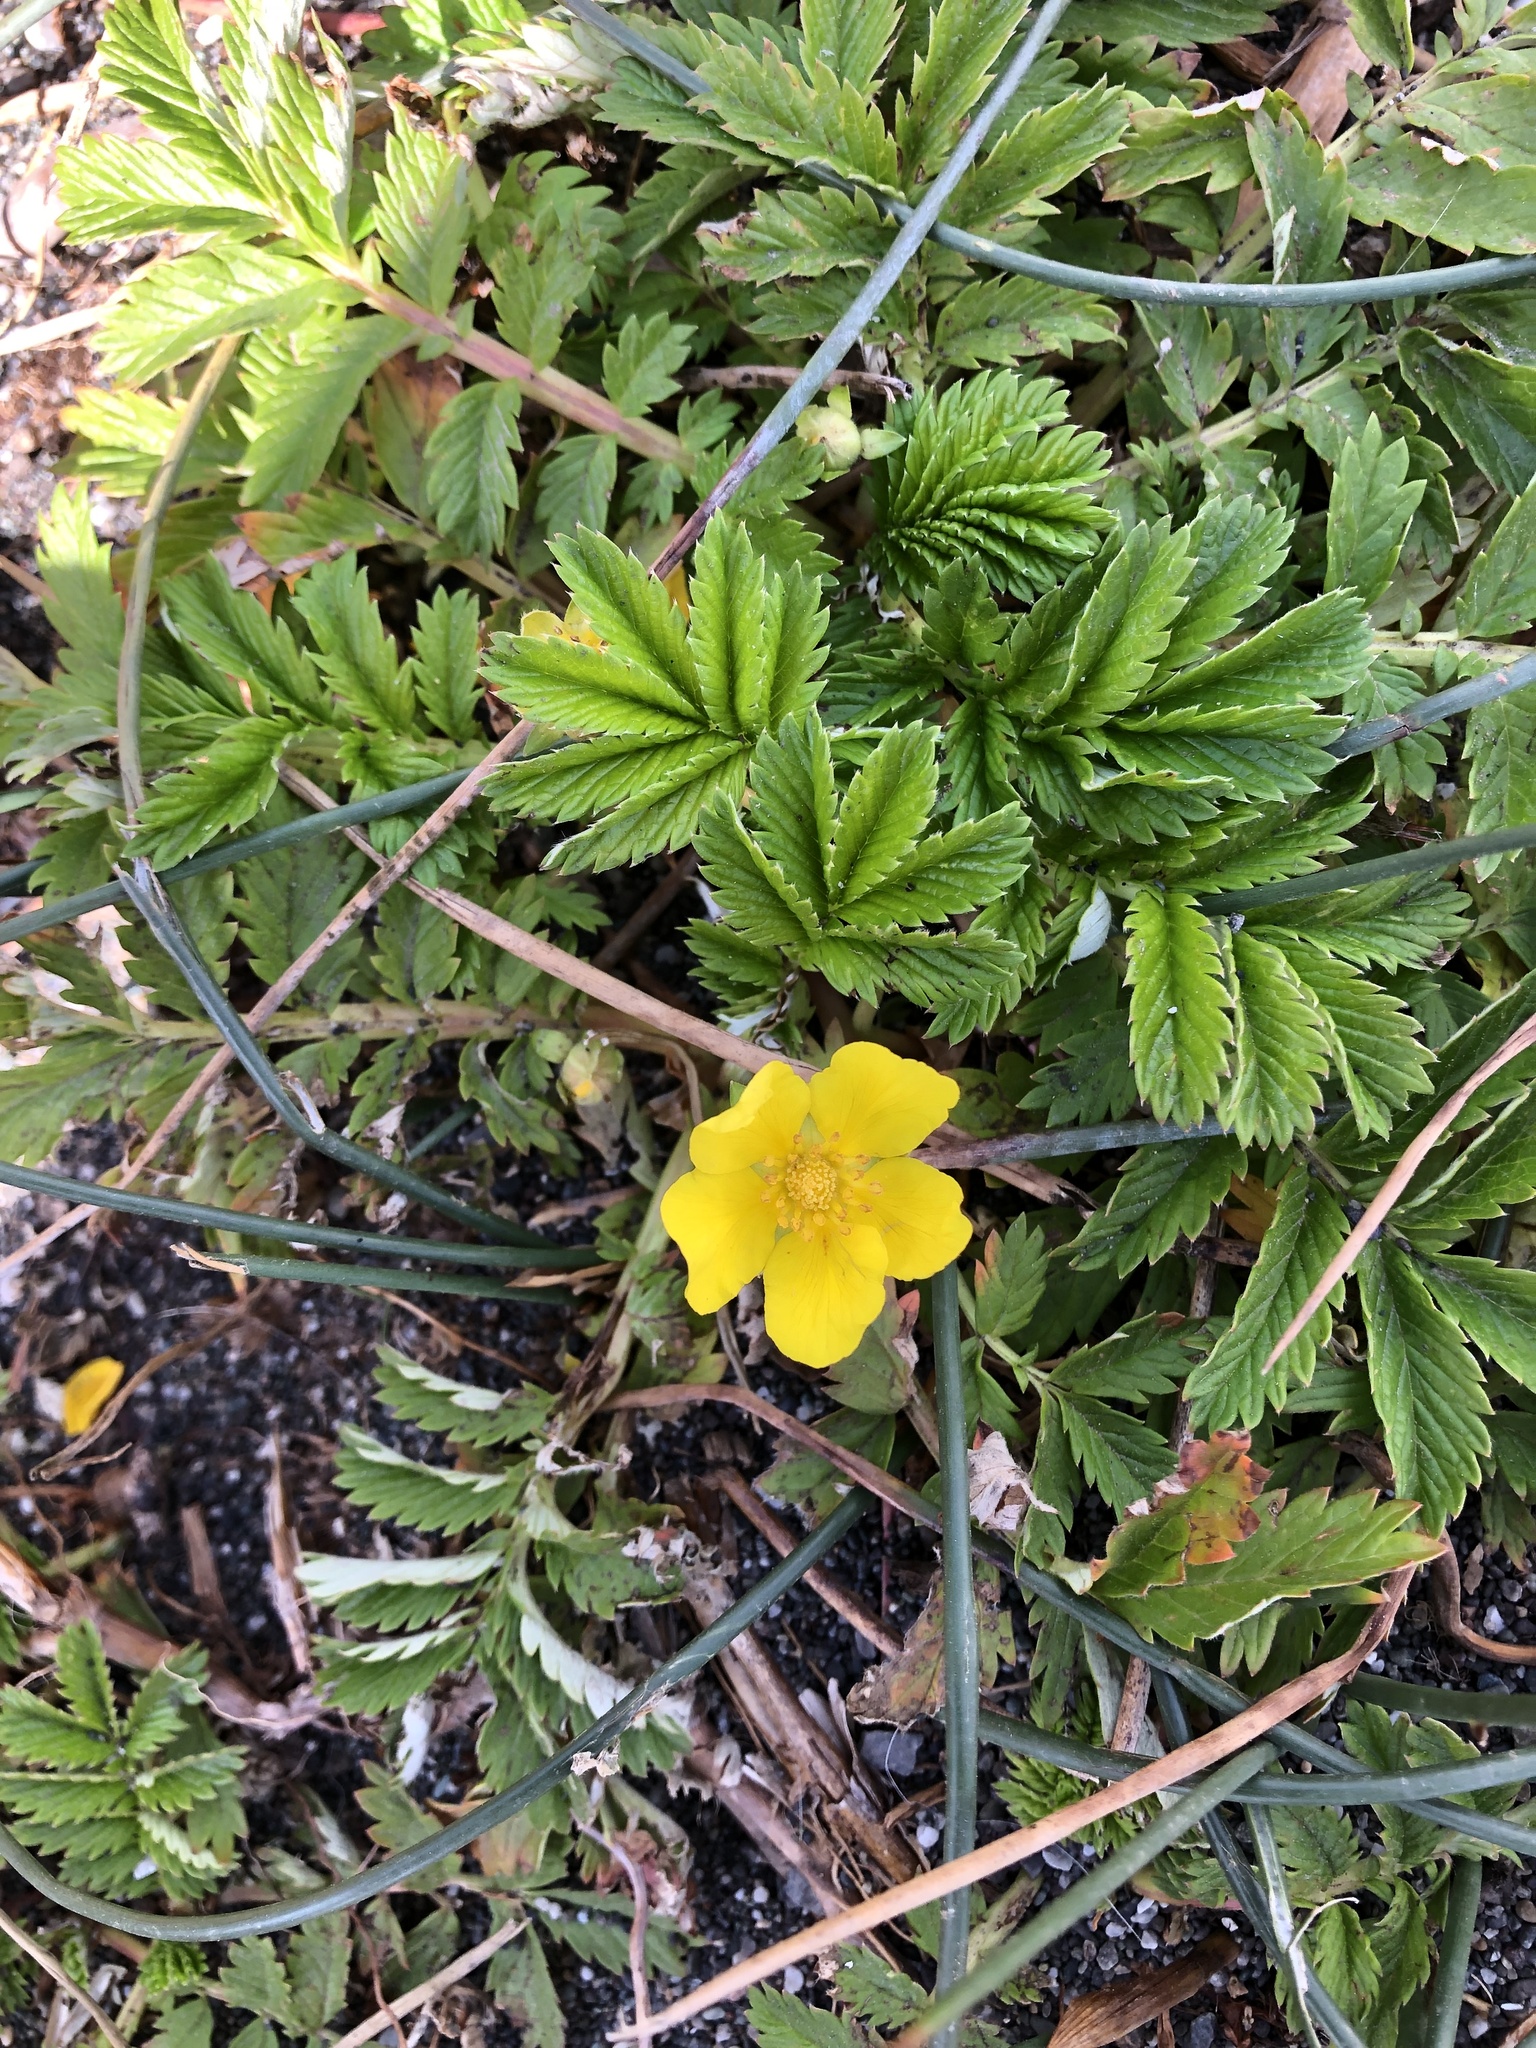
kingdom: Plantae
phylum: Tracheophyta
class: Magnoliopsida
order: Rosales
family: Rosaceae
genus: Argentina
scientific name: Argentina anserina
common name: Common silverweed
